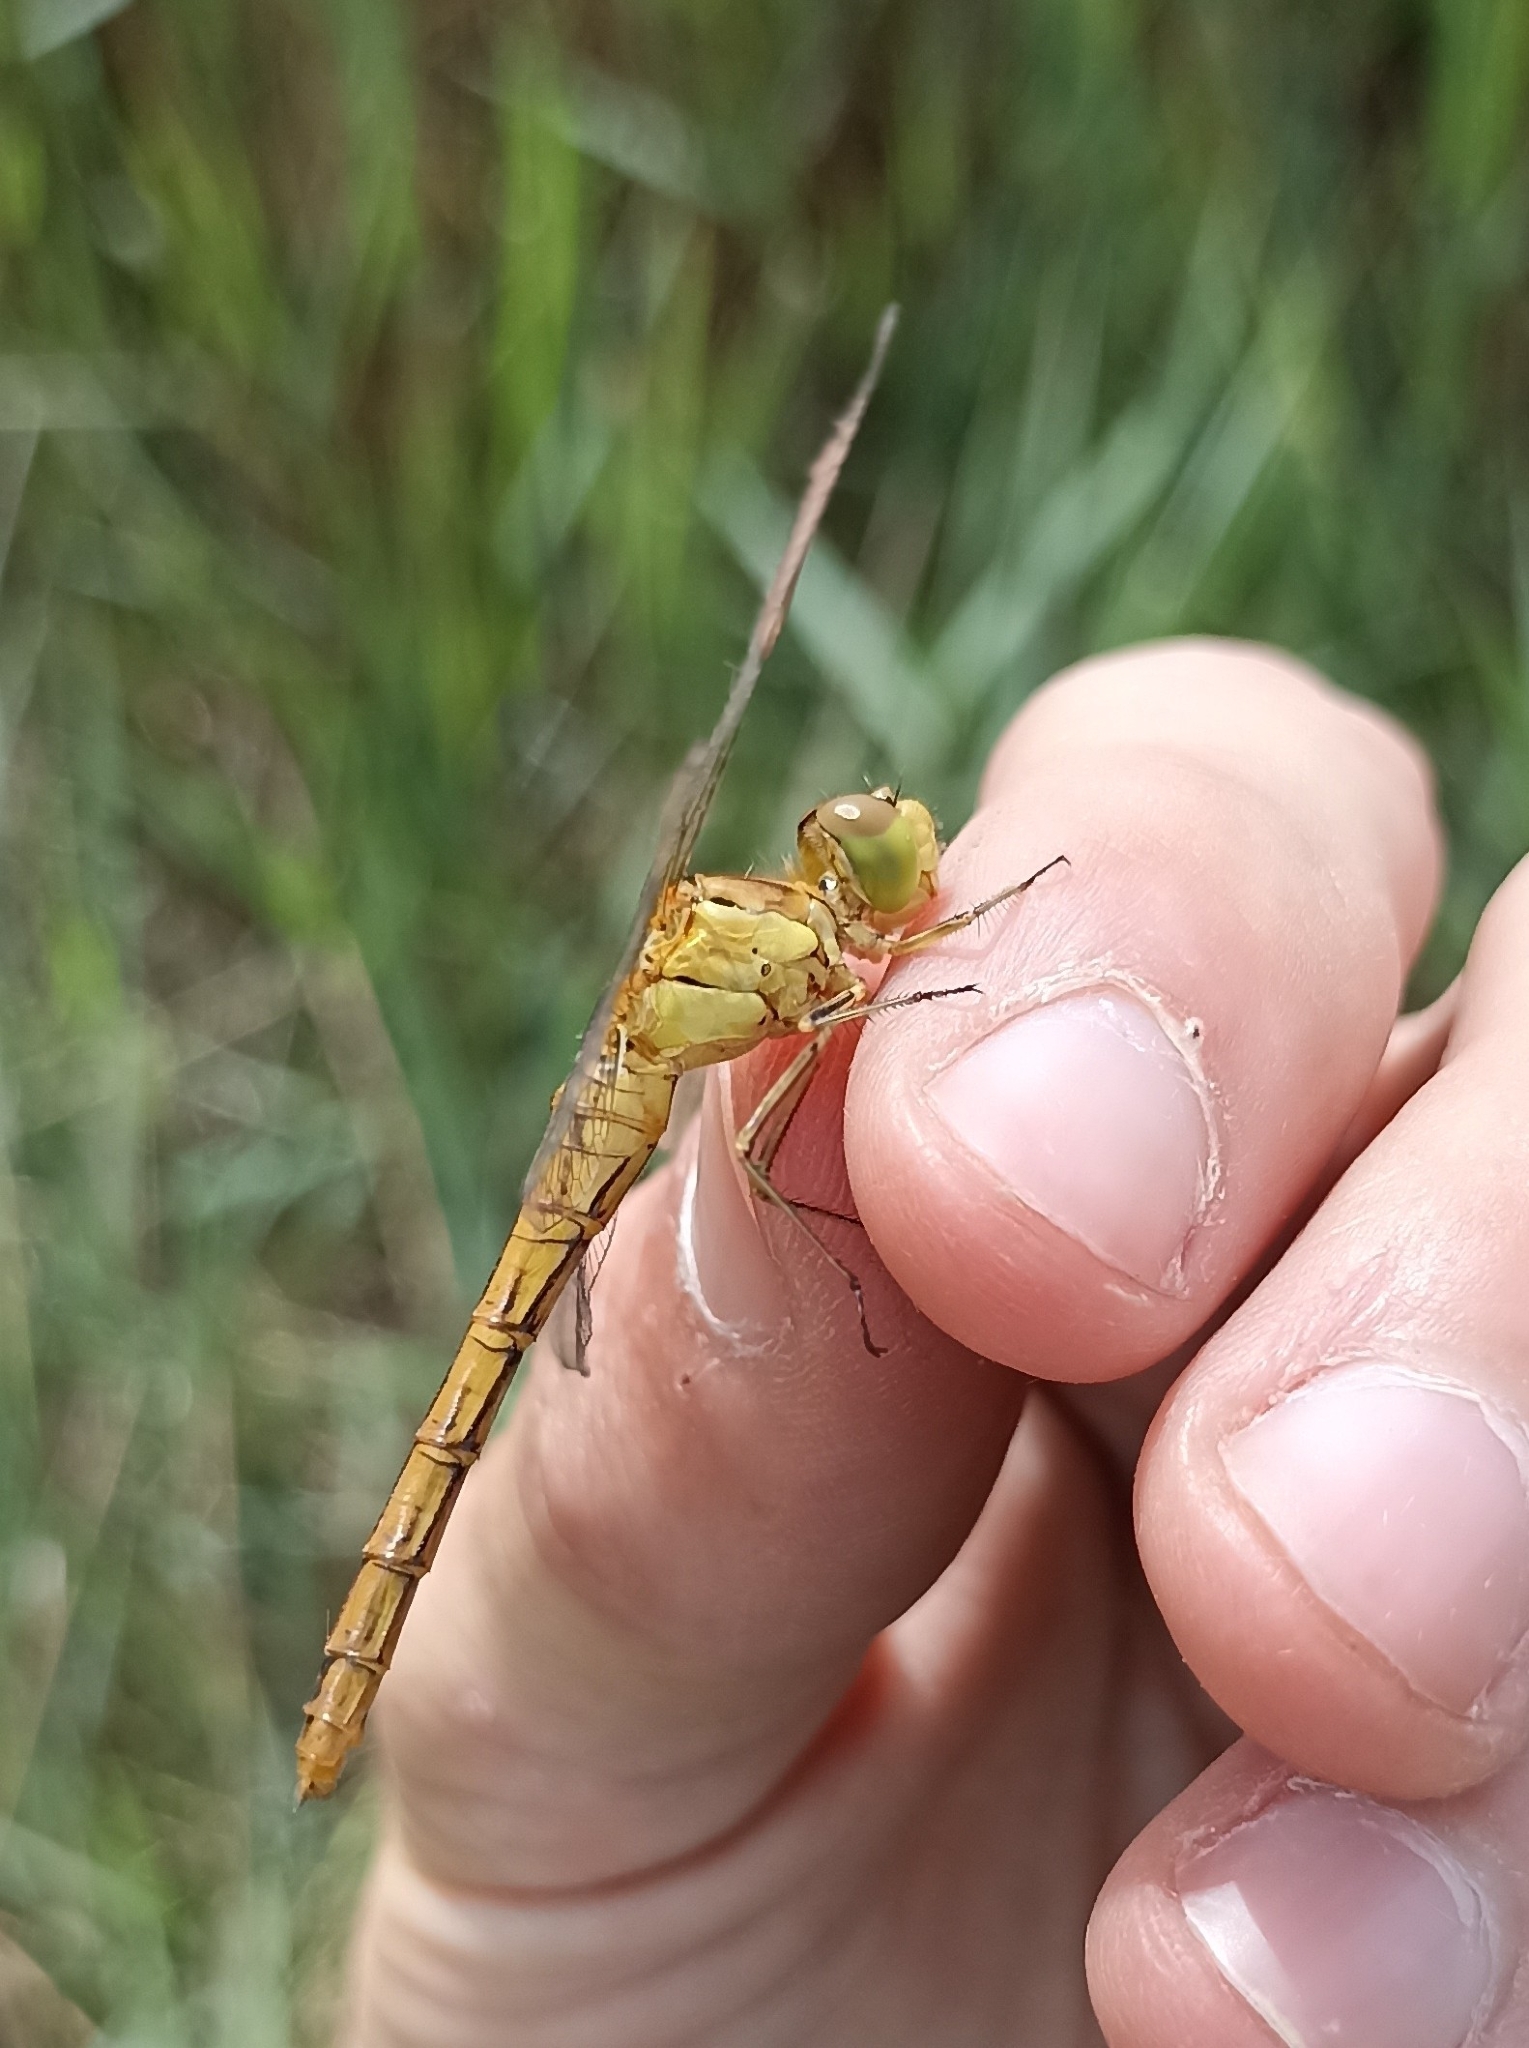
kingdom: Animalia
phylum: Arthropoda
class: Insecta
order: Odonata
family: Libellulidae
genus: Sympetrum
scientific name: Sympetrum meridionale
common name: Southern darter
